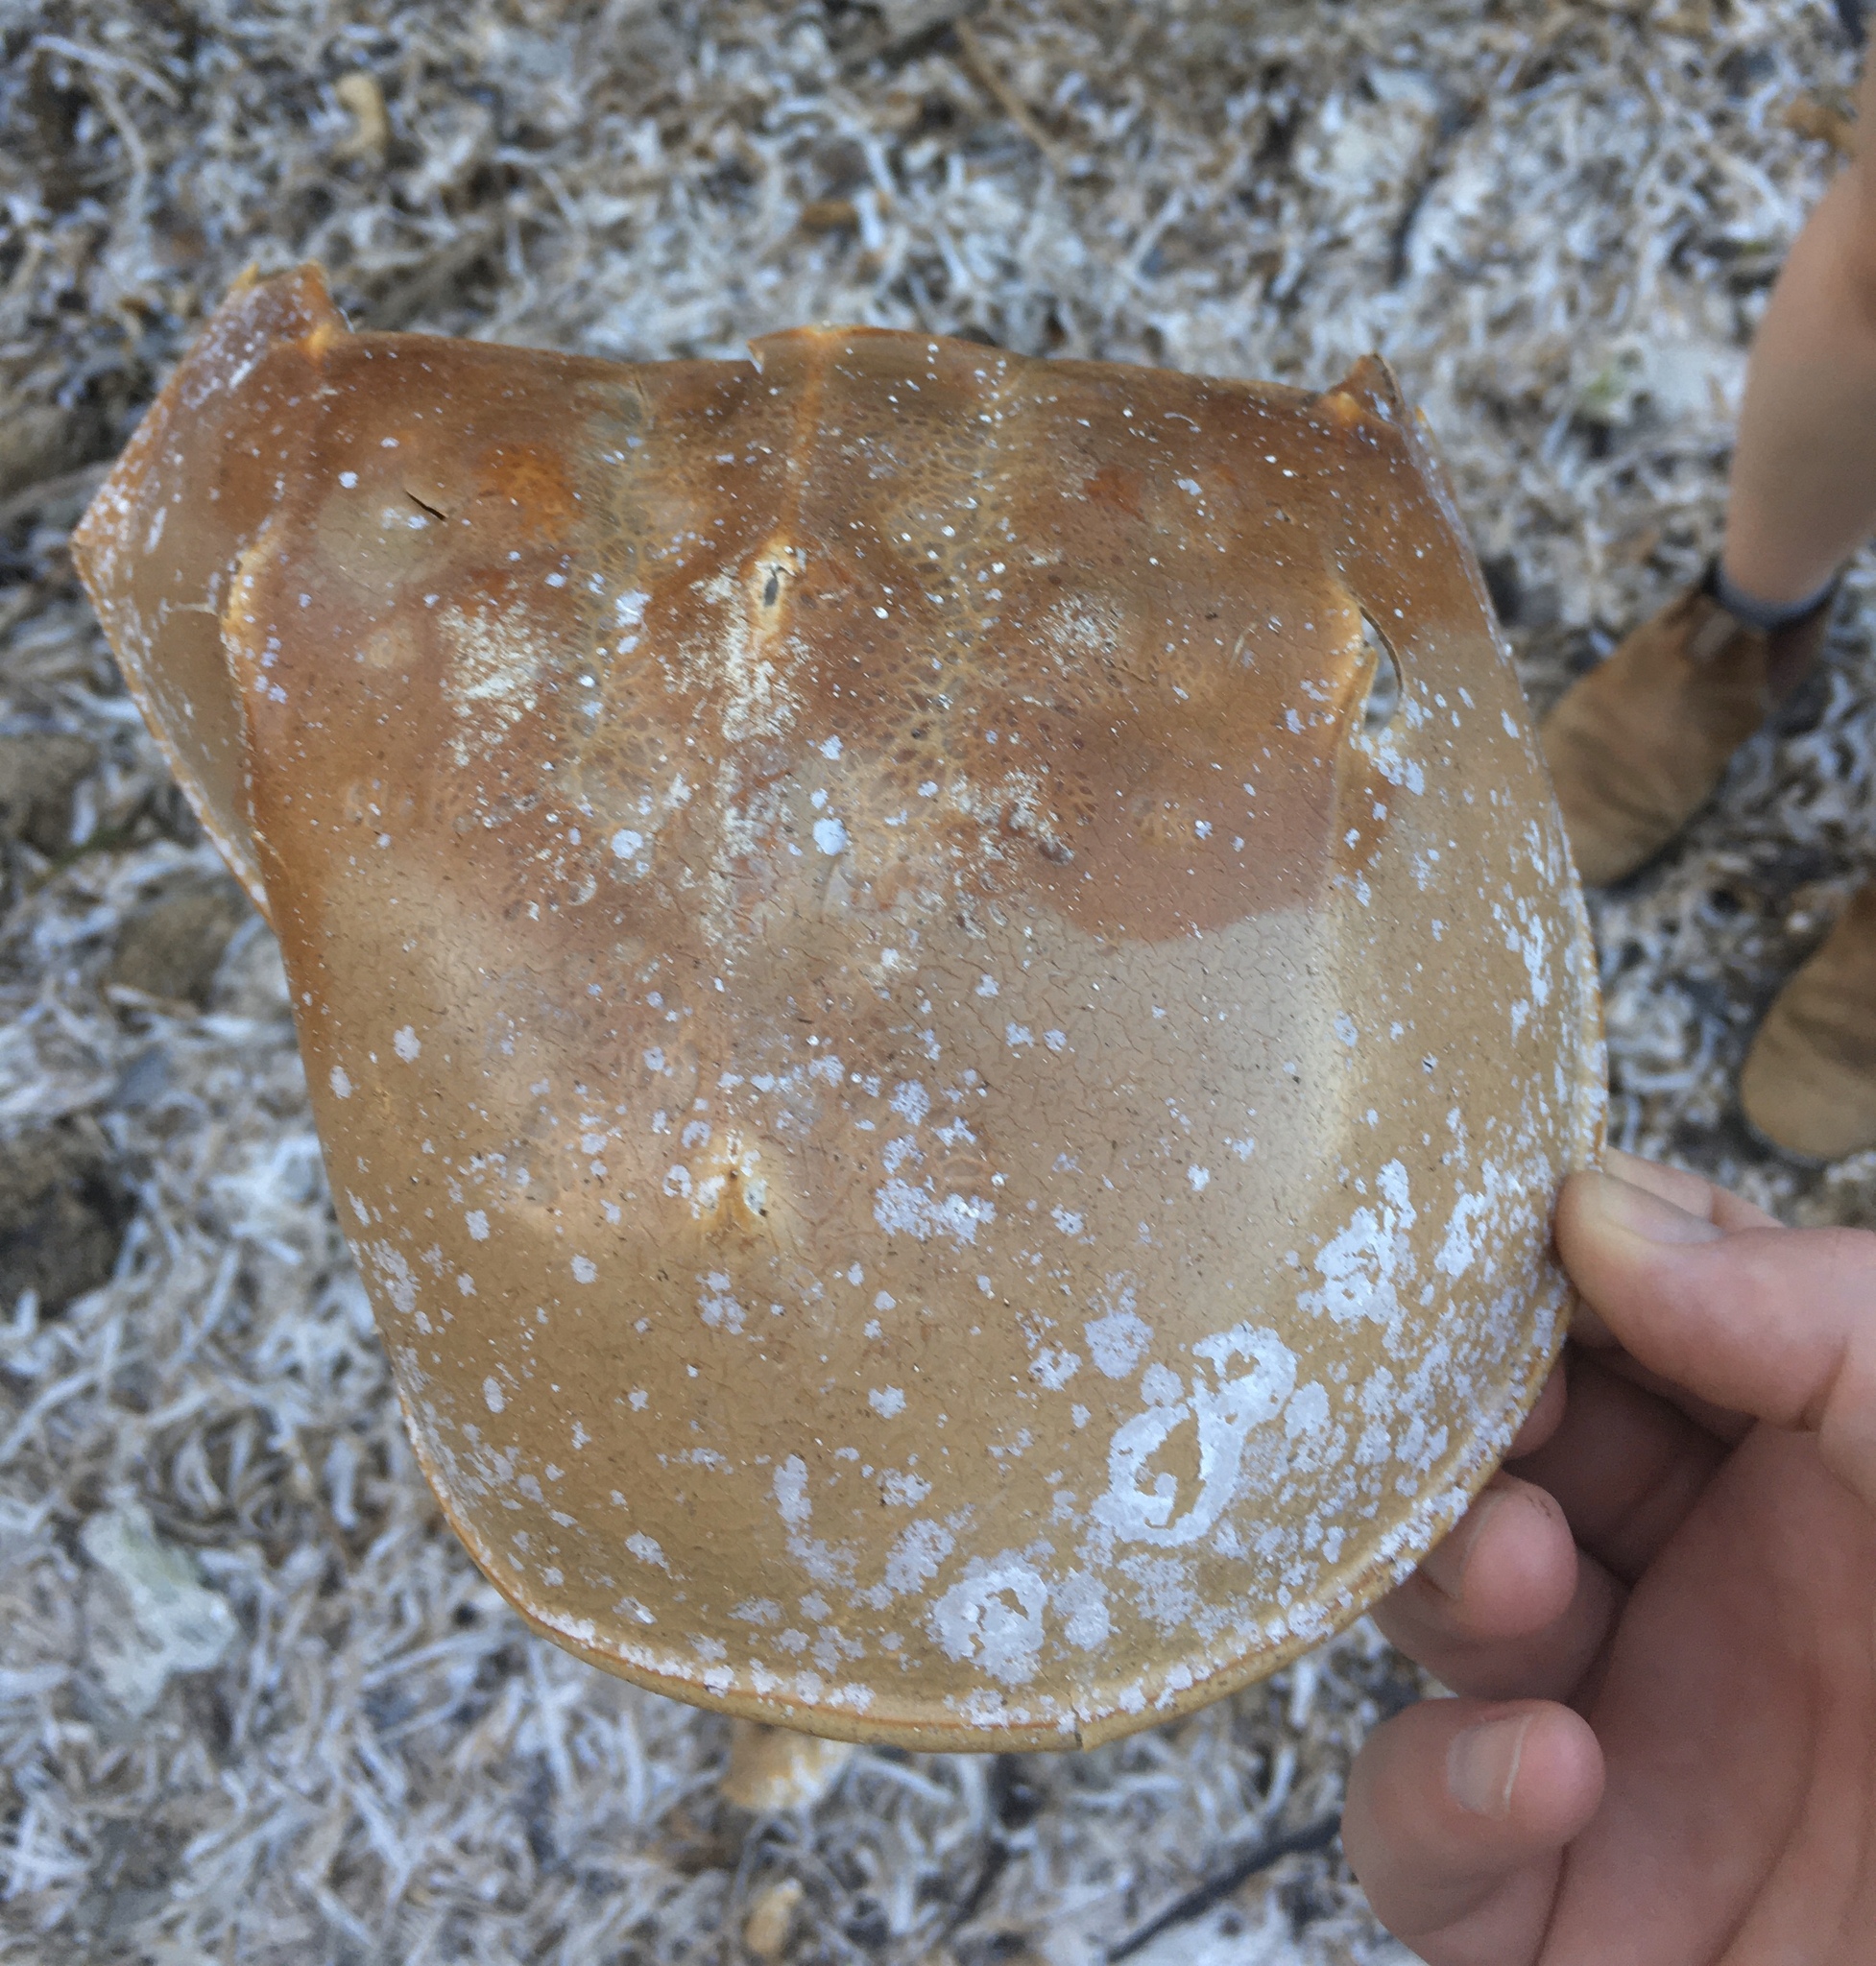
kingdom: Animalia
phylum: Arthropoda
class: Merostomata
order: Xiphosurida
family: Limulidae
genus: Limulus
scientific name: Limulus polyphemus
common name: Horseshoe crab
